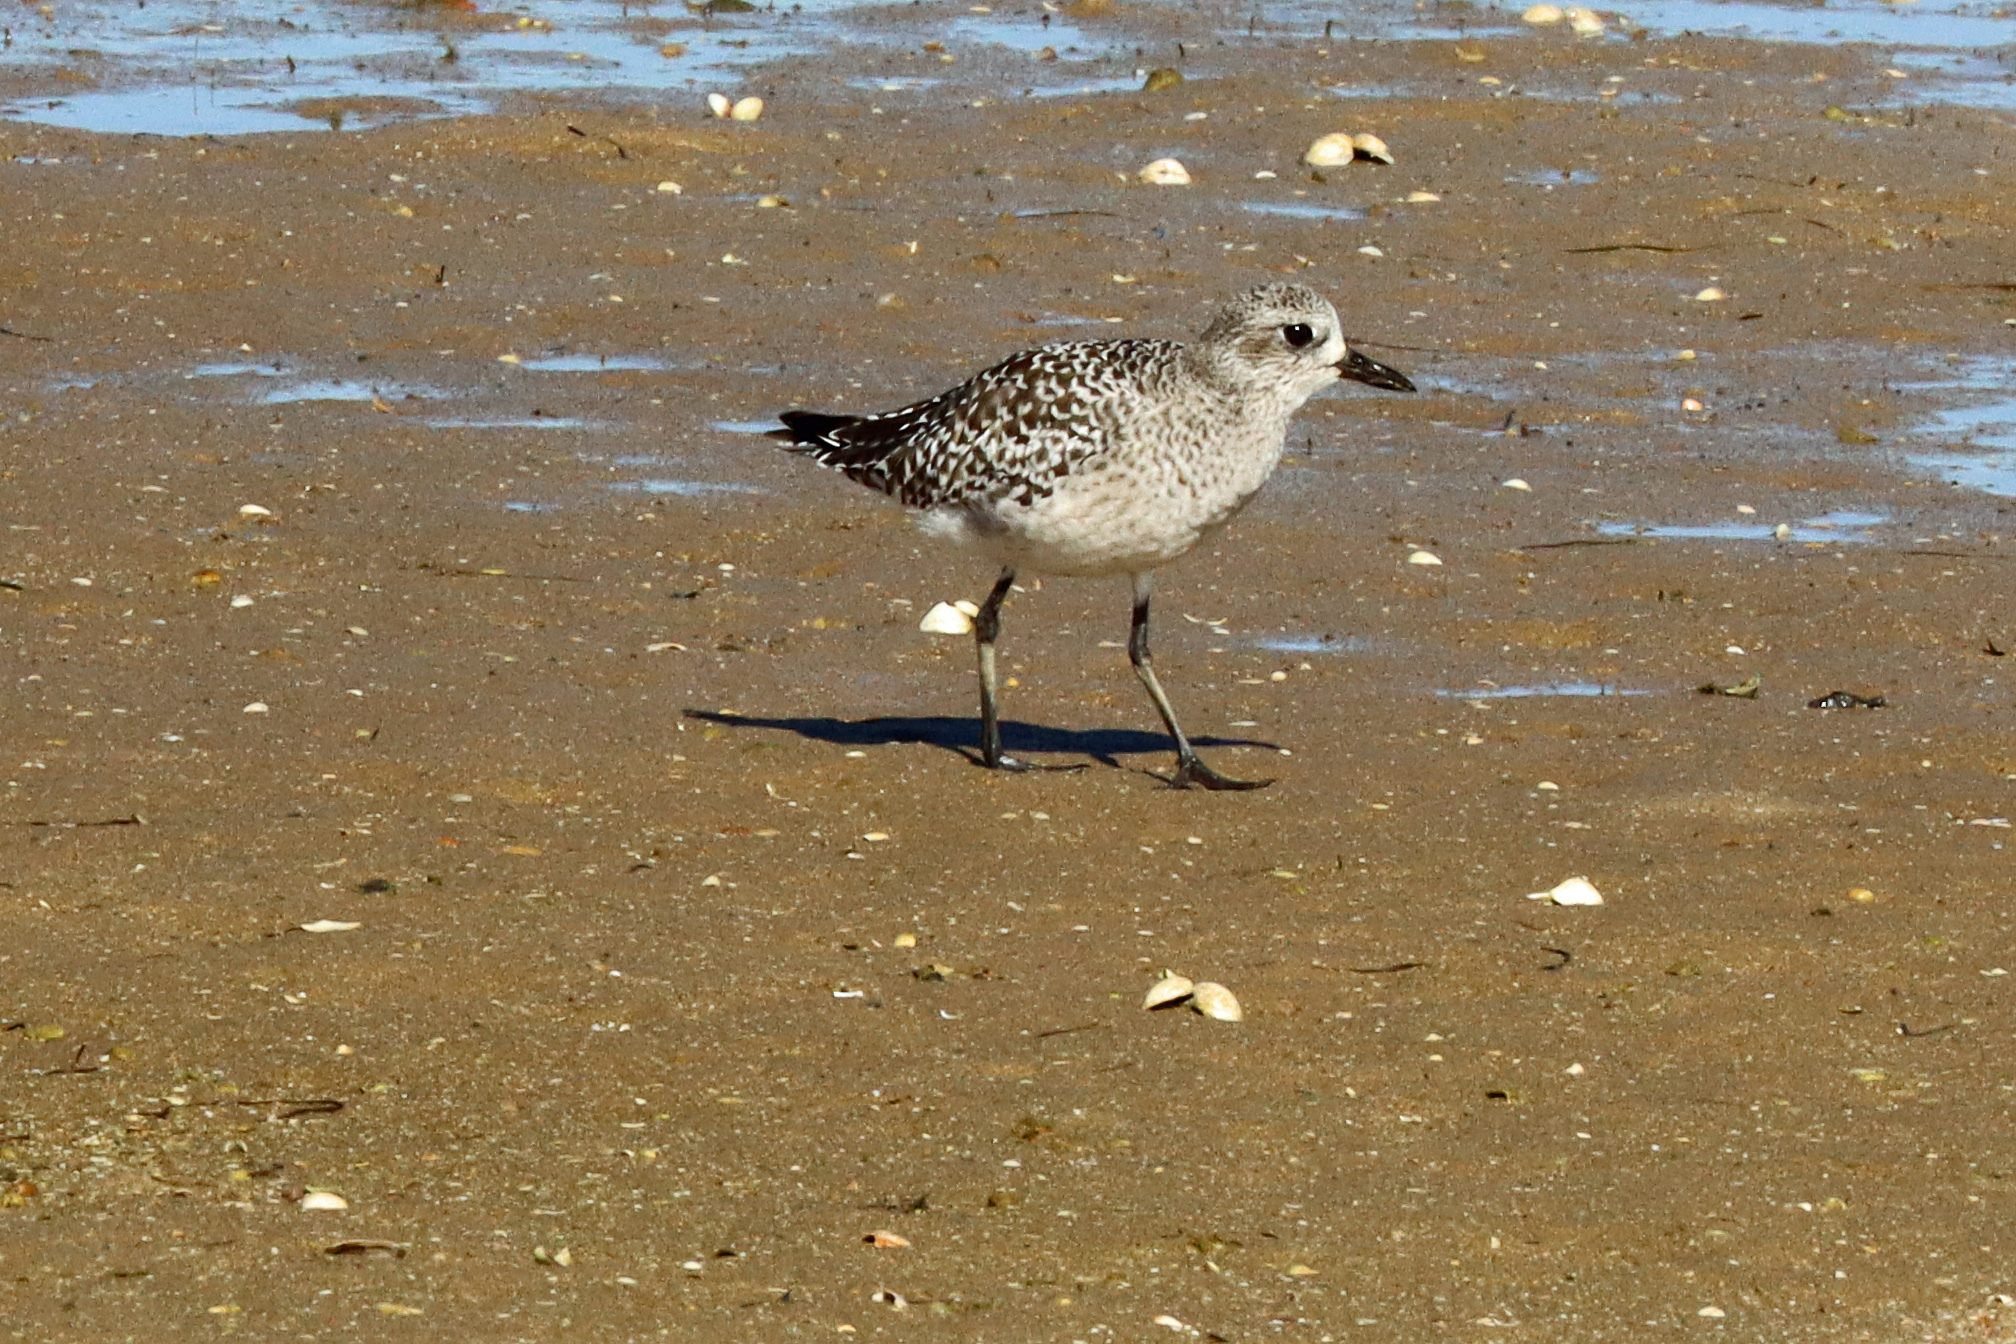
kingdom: Animalia
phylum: Chordata
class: Aves
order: Charadriiformes
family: Charadriidae
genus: Pluvialis
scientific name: Pluvialis squatarola
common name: Grey plover
